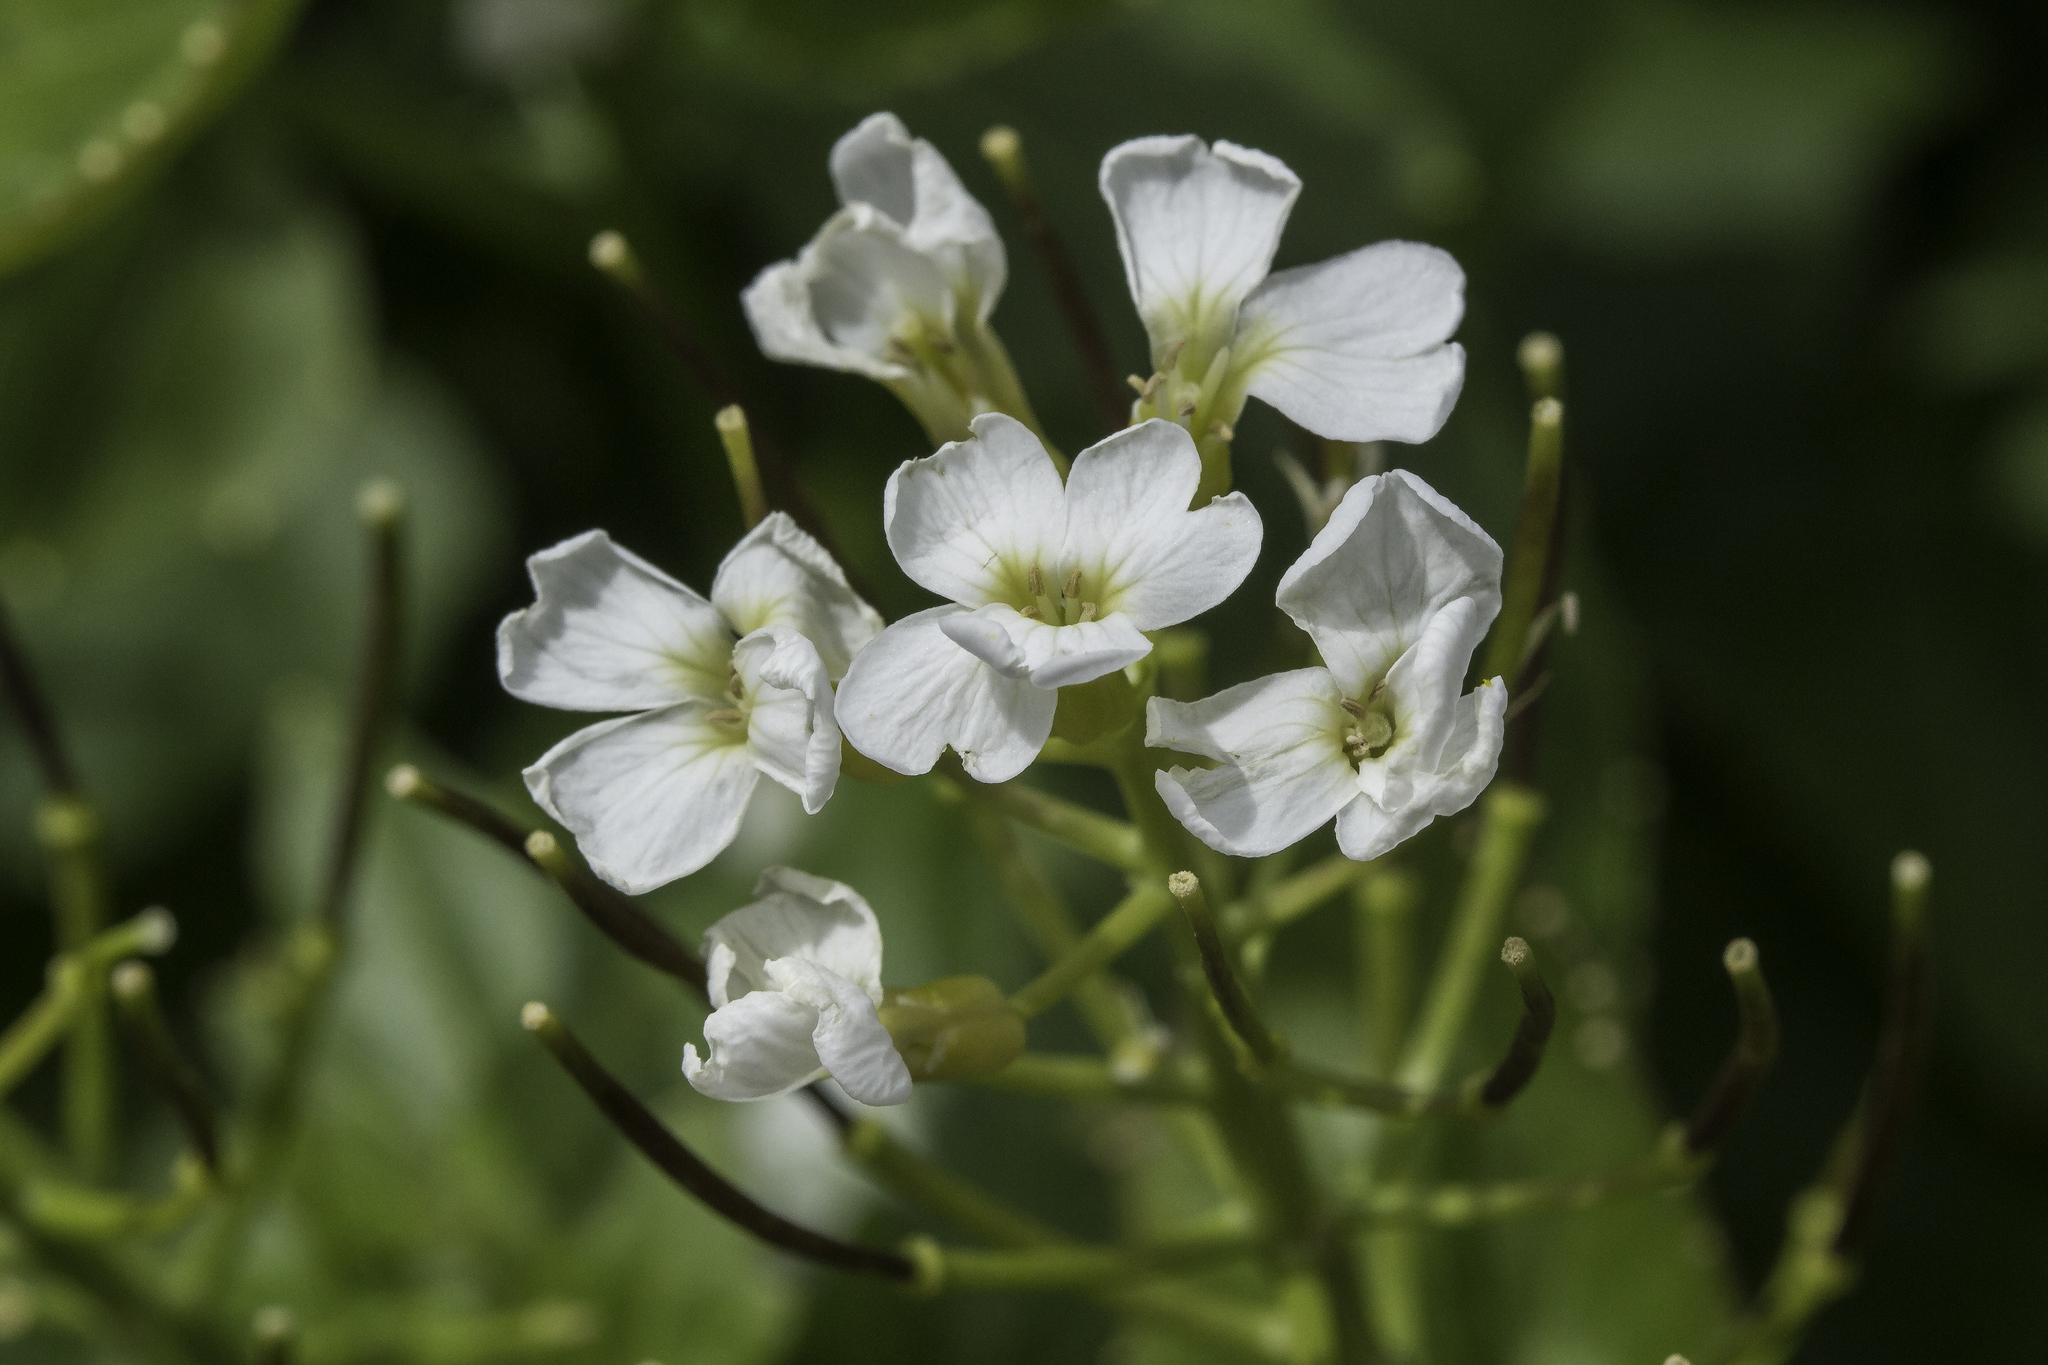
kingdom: Plantae
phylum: Tracheophyta
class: Magnoliopsida
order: Brassicales
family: Brassicaceae
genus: Cardamine
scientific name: Cardamine cordifolia
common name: Heart-leaf bittercress
